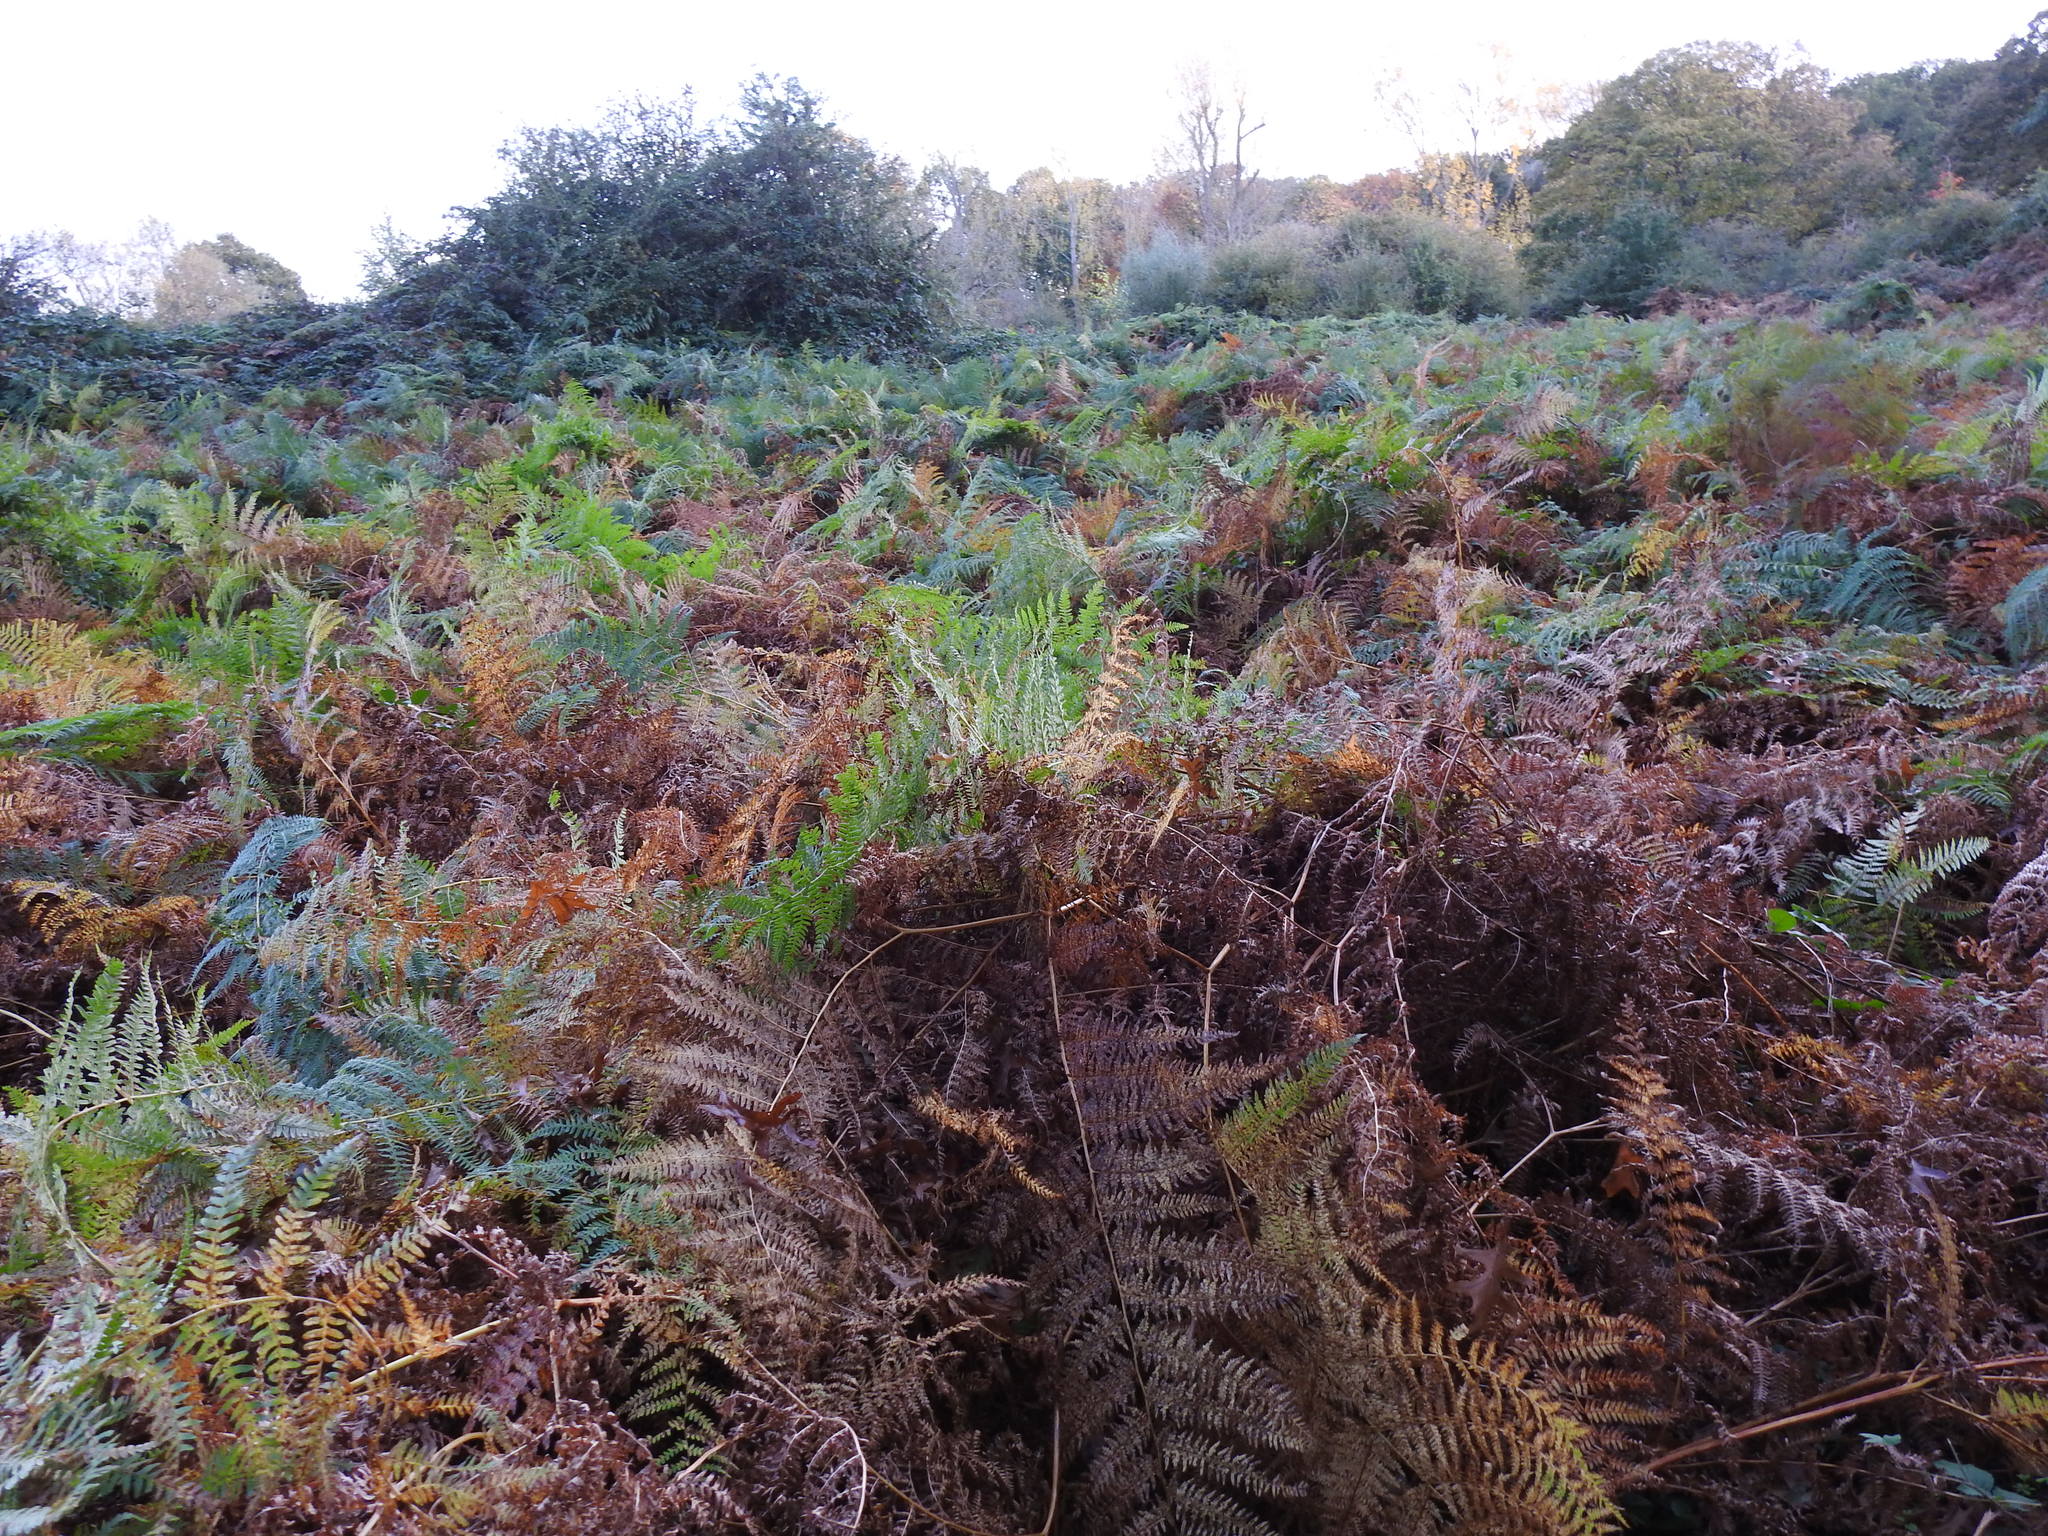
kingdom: Plantae
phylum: Tracheophyta
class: Polypodiopsida
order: Polypodiales
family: Dennstaedtiaceae
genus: Pteridium
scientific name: Pteridium aquilinum
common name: Bracken
